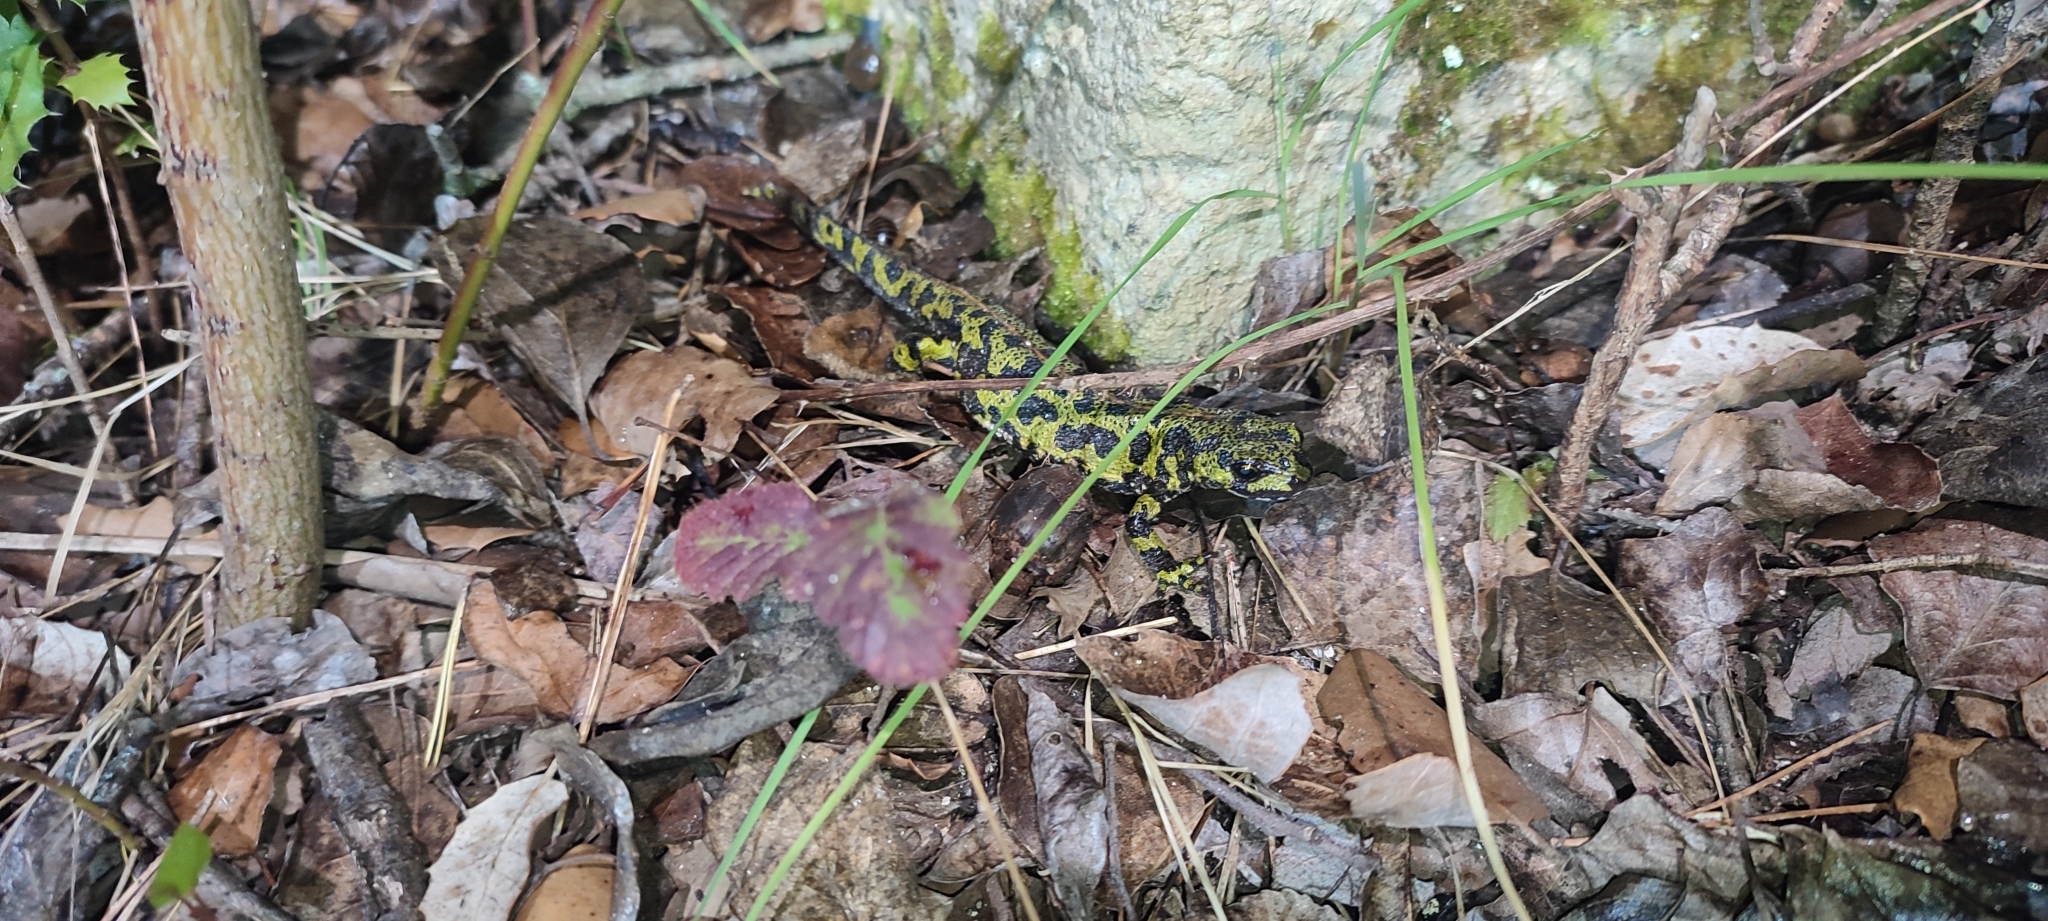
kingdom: Animalia
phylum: Chordata
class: Amphibia
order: Caudata
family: Salamandridae
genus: Triturus
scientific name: Triturus marmoratus
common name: Marbled newt
